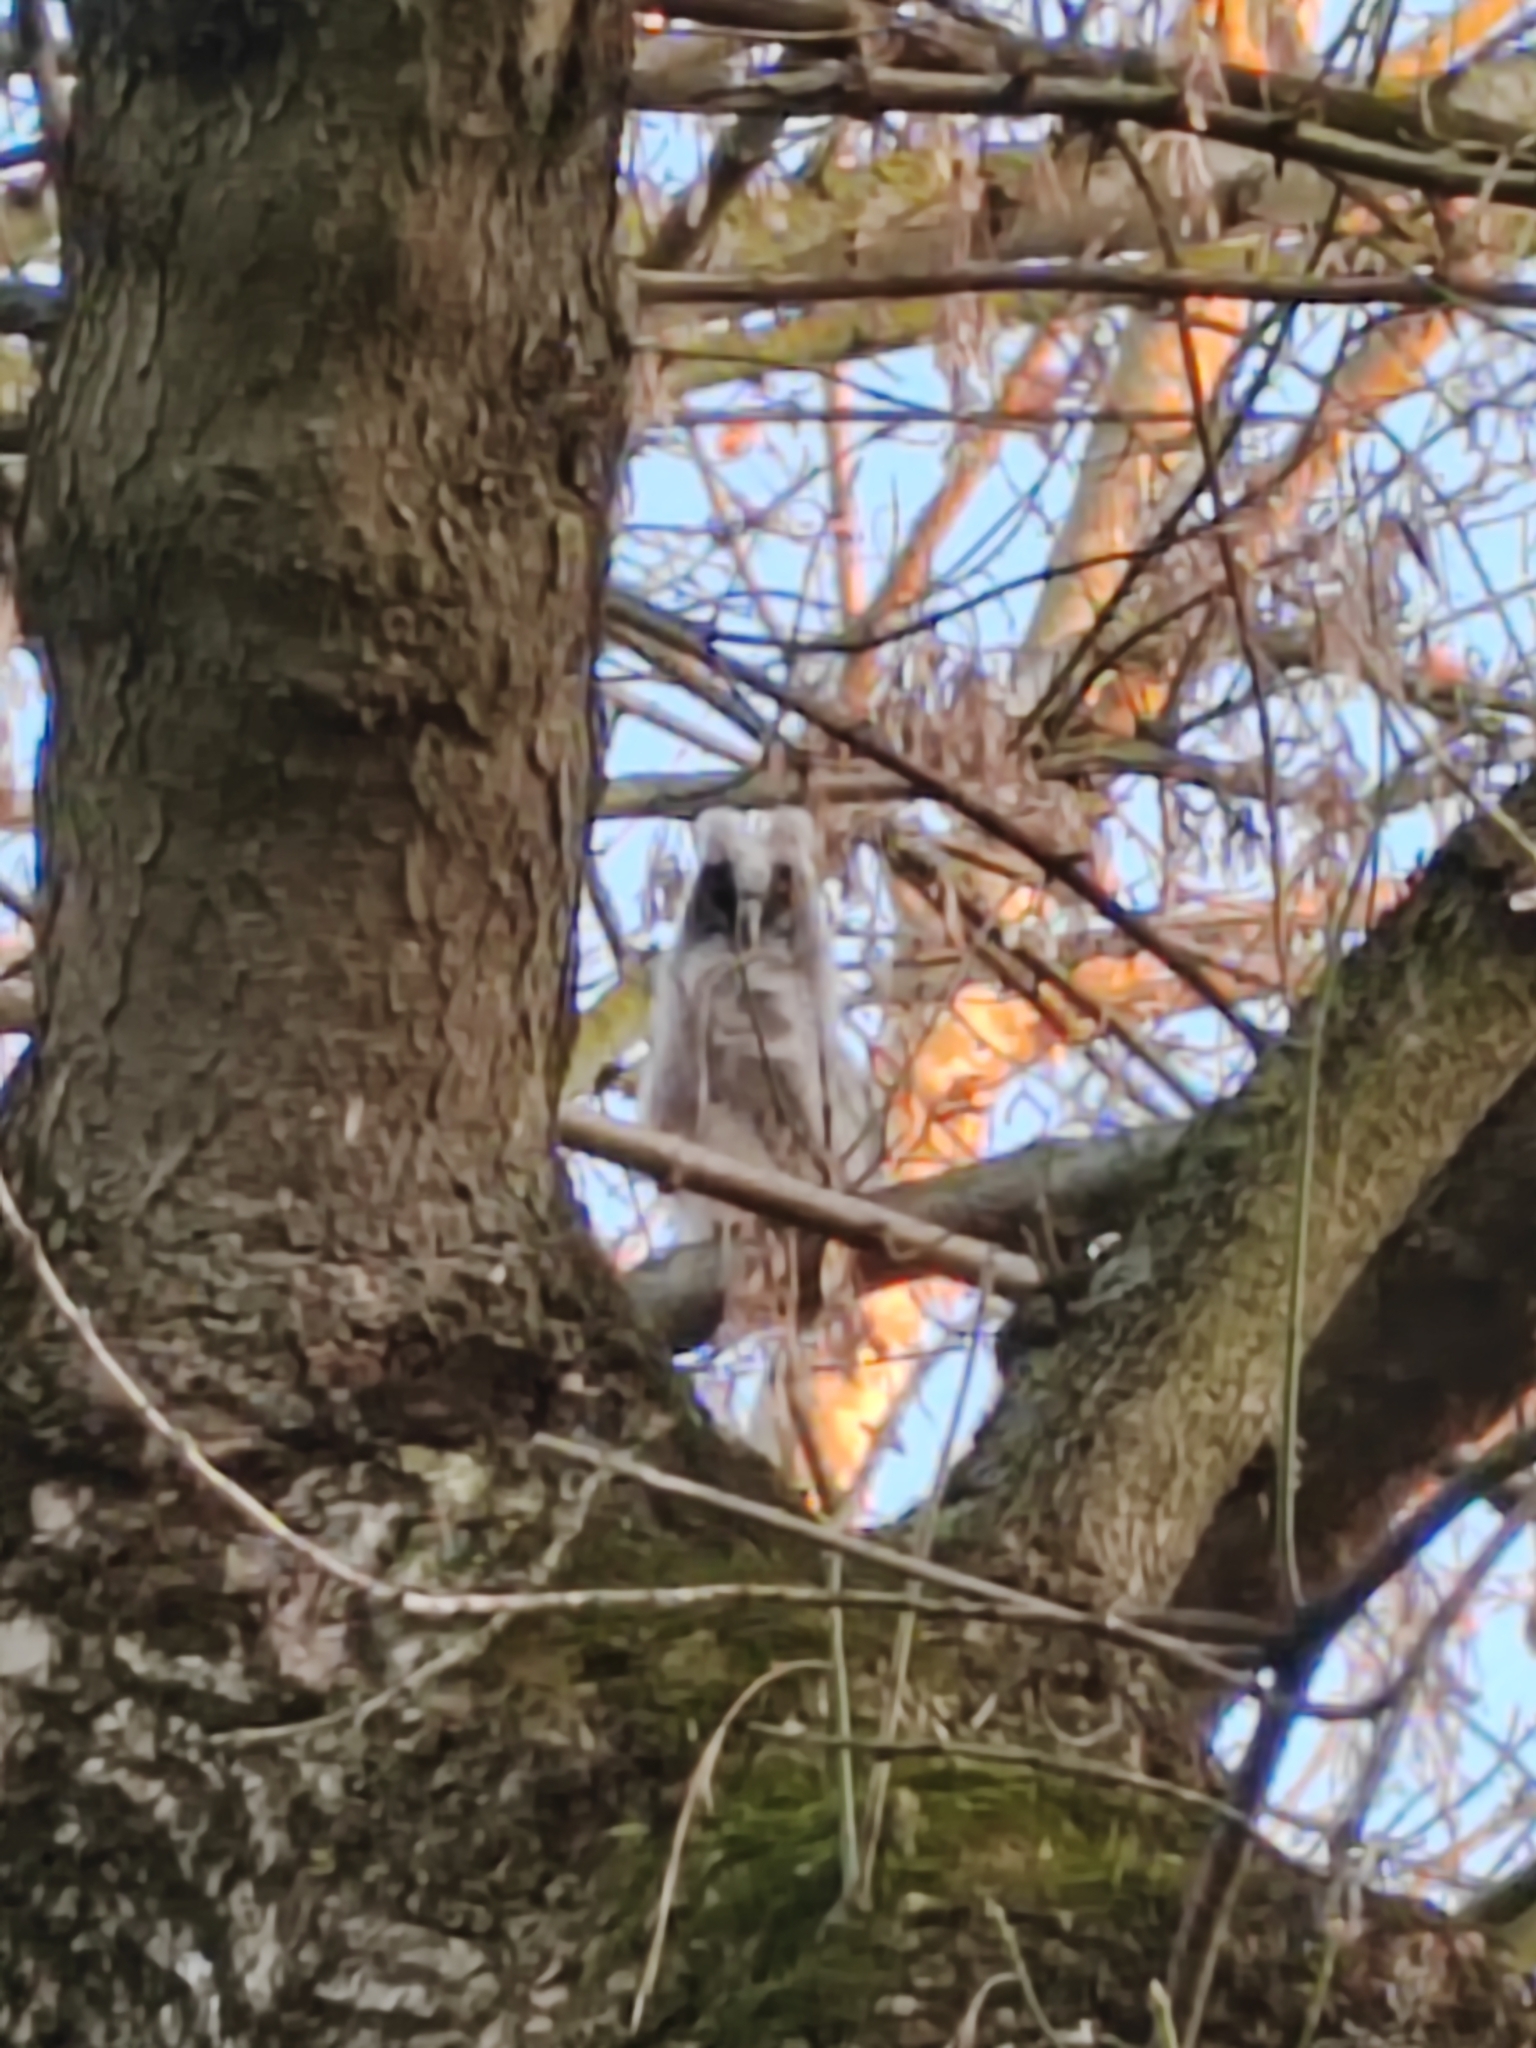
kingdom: Animalia
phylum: Chordata
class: Aves
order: Strigiformes
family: Strigidae
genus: Asio
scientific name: Asio otus
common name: Long-eared owl
